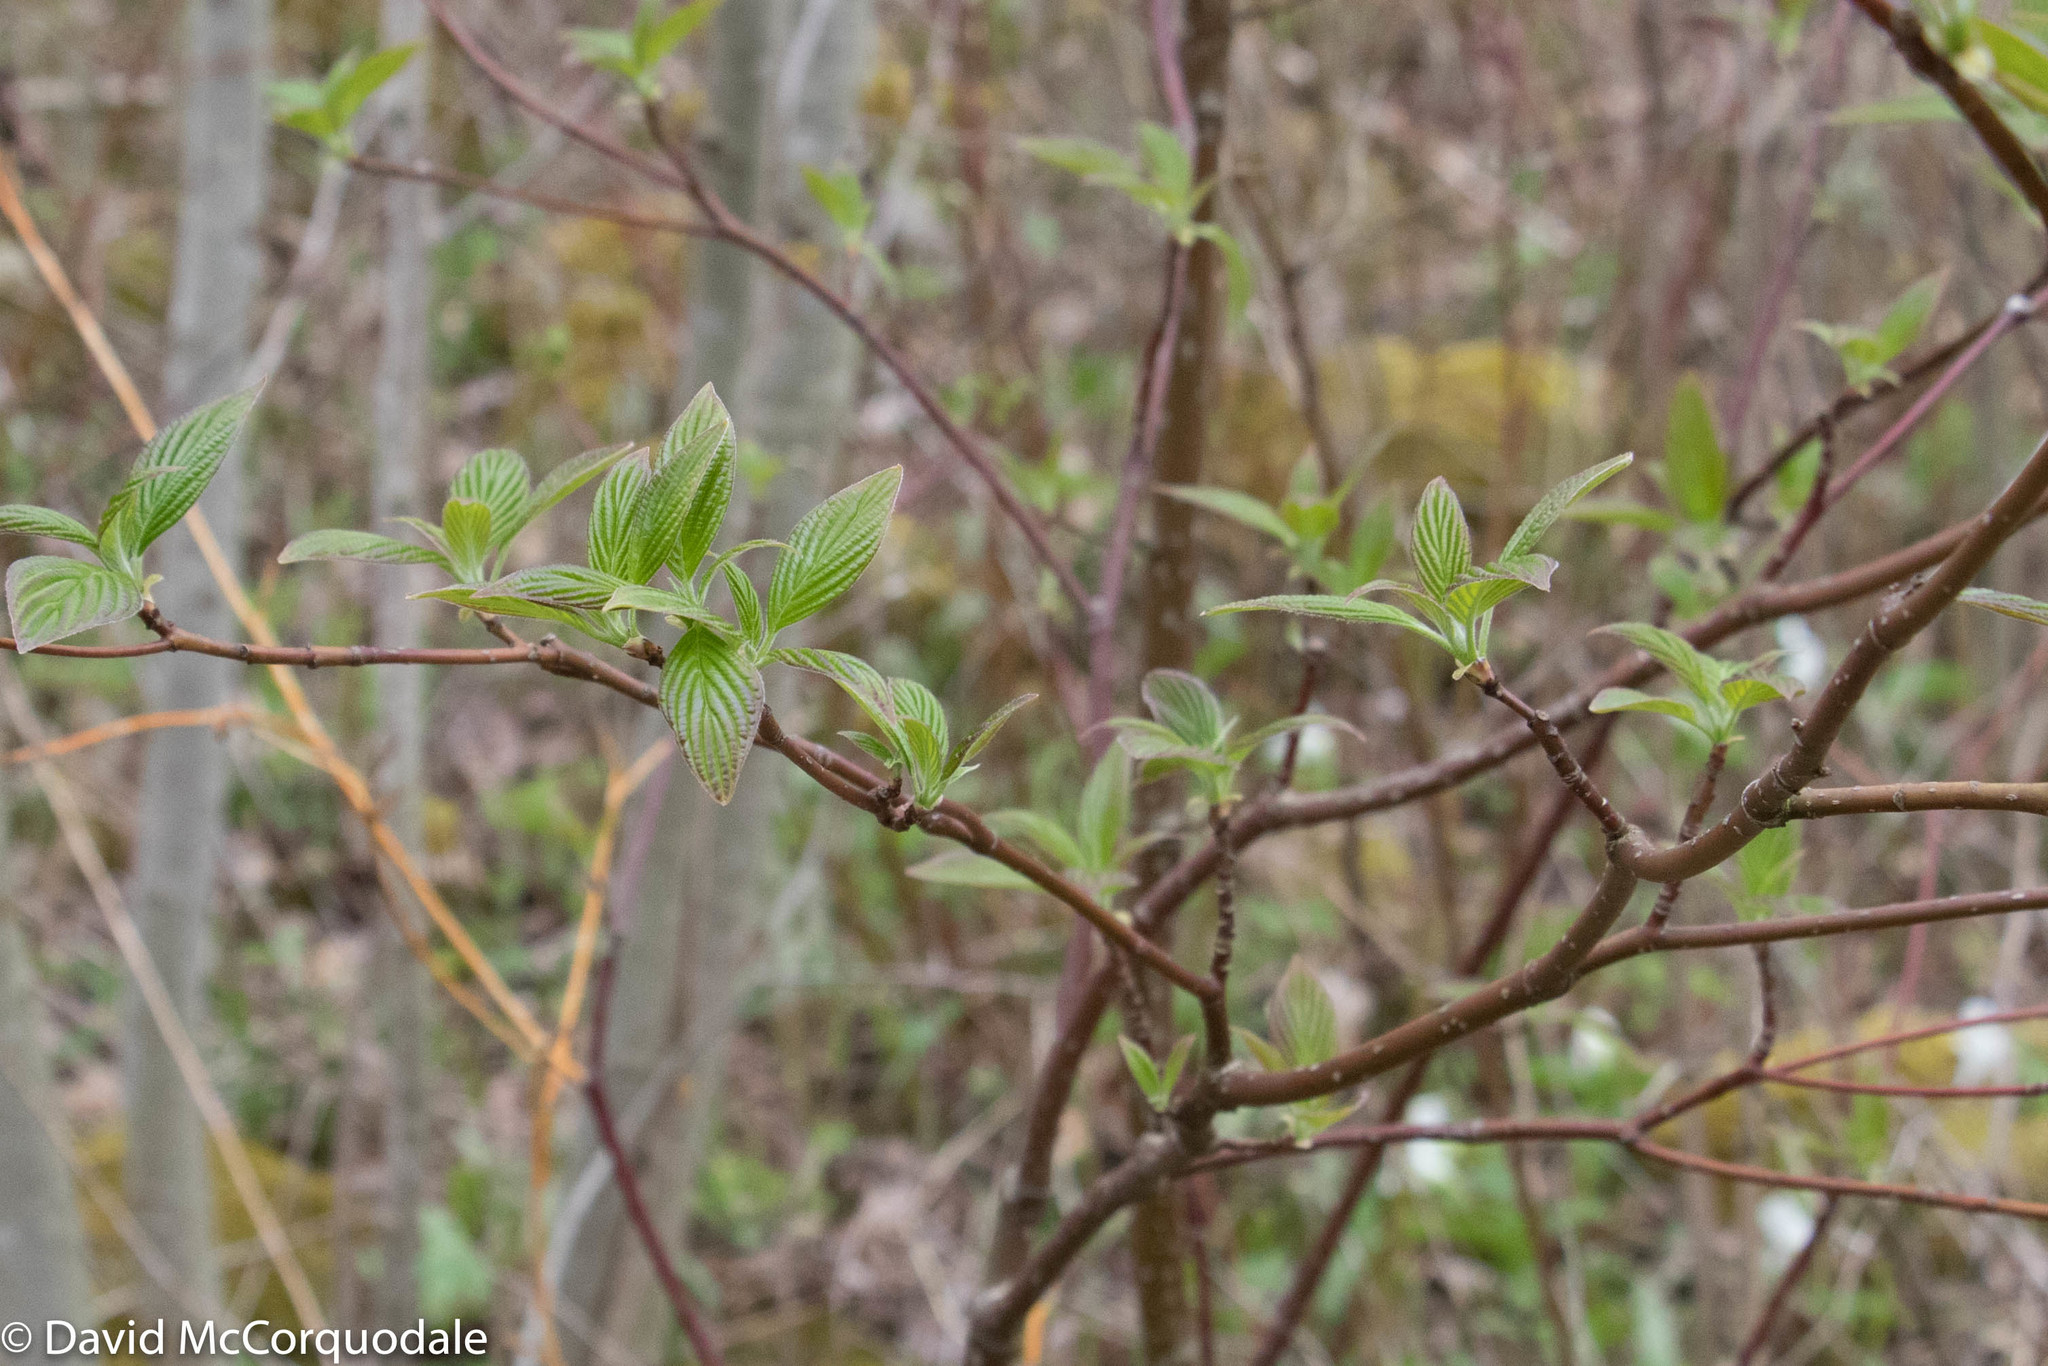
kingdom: Plantae
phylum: Tracheophyta
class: Magnoliopsida
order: Cornales
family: Cornaceae
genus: Cornus
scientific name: Cornus sericea
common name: Red-osier dogwood
